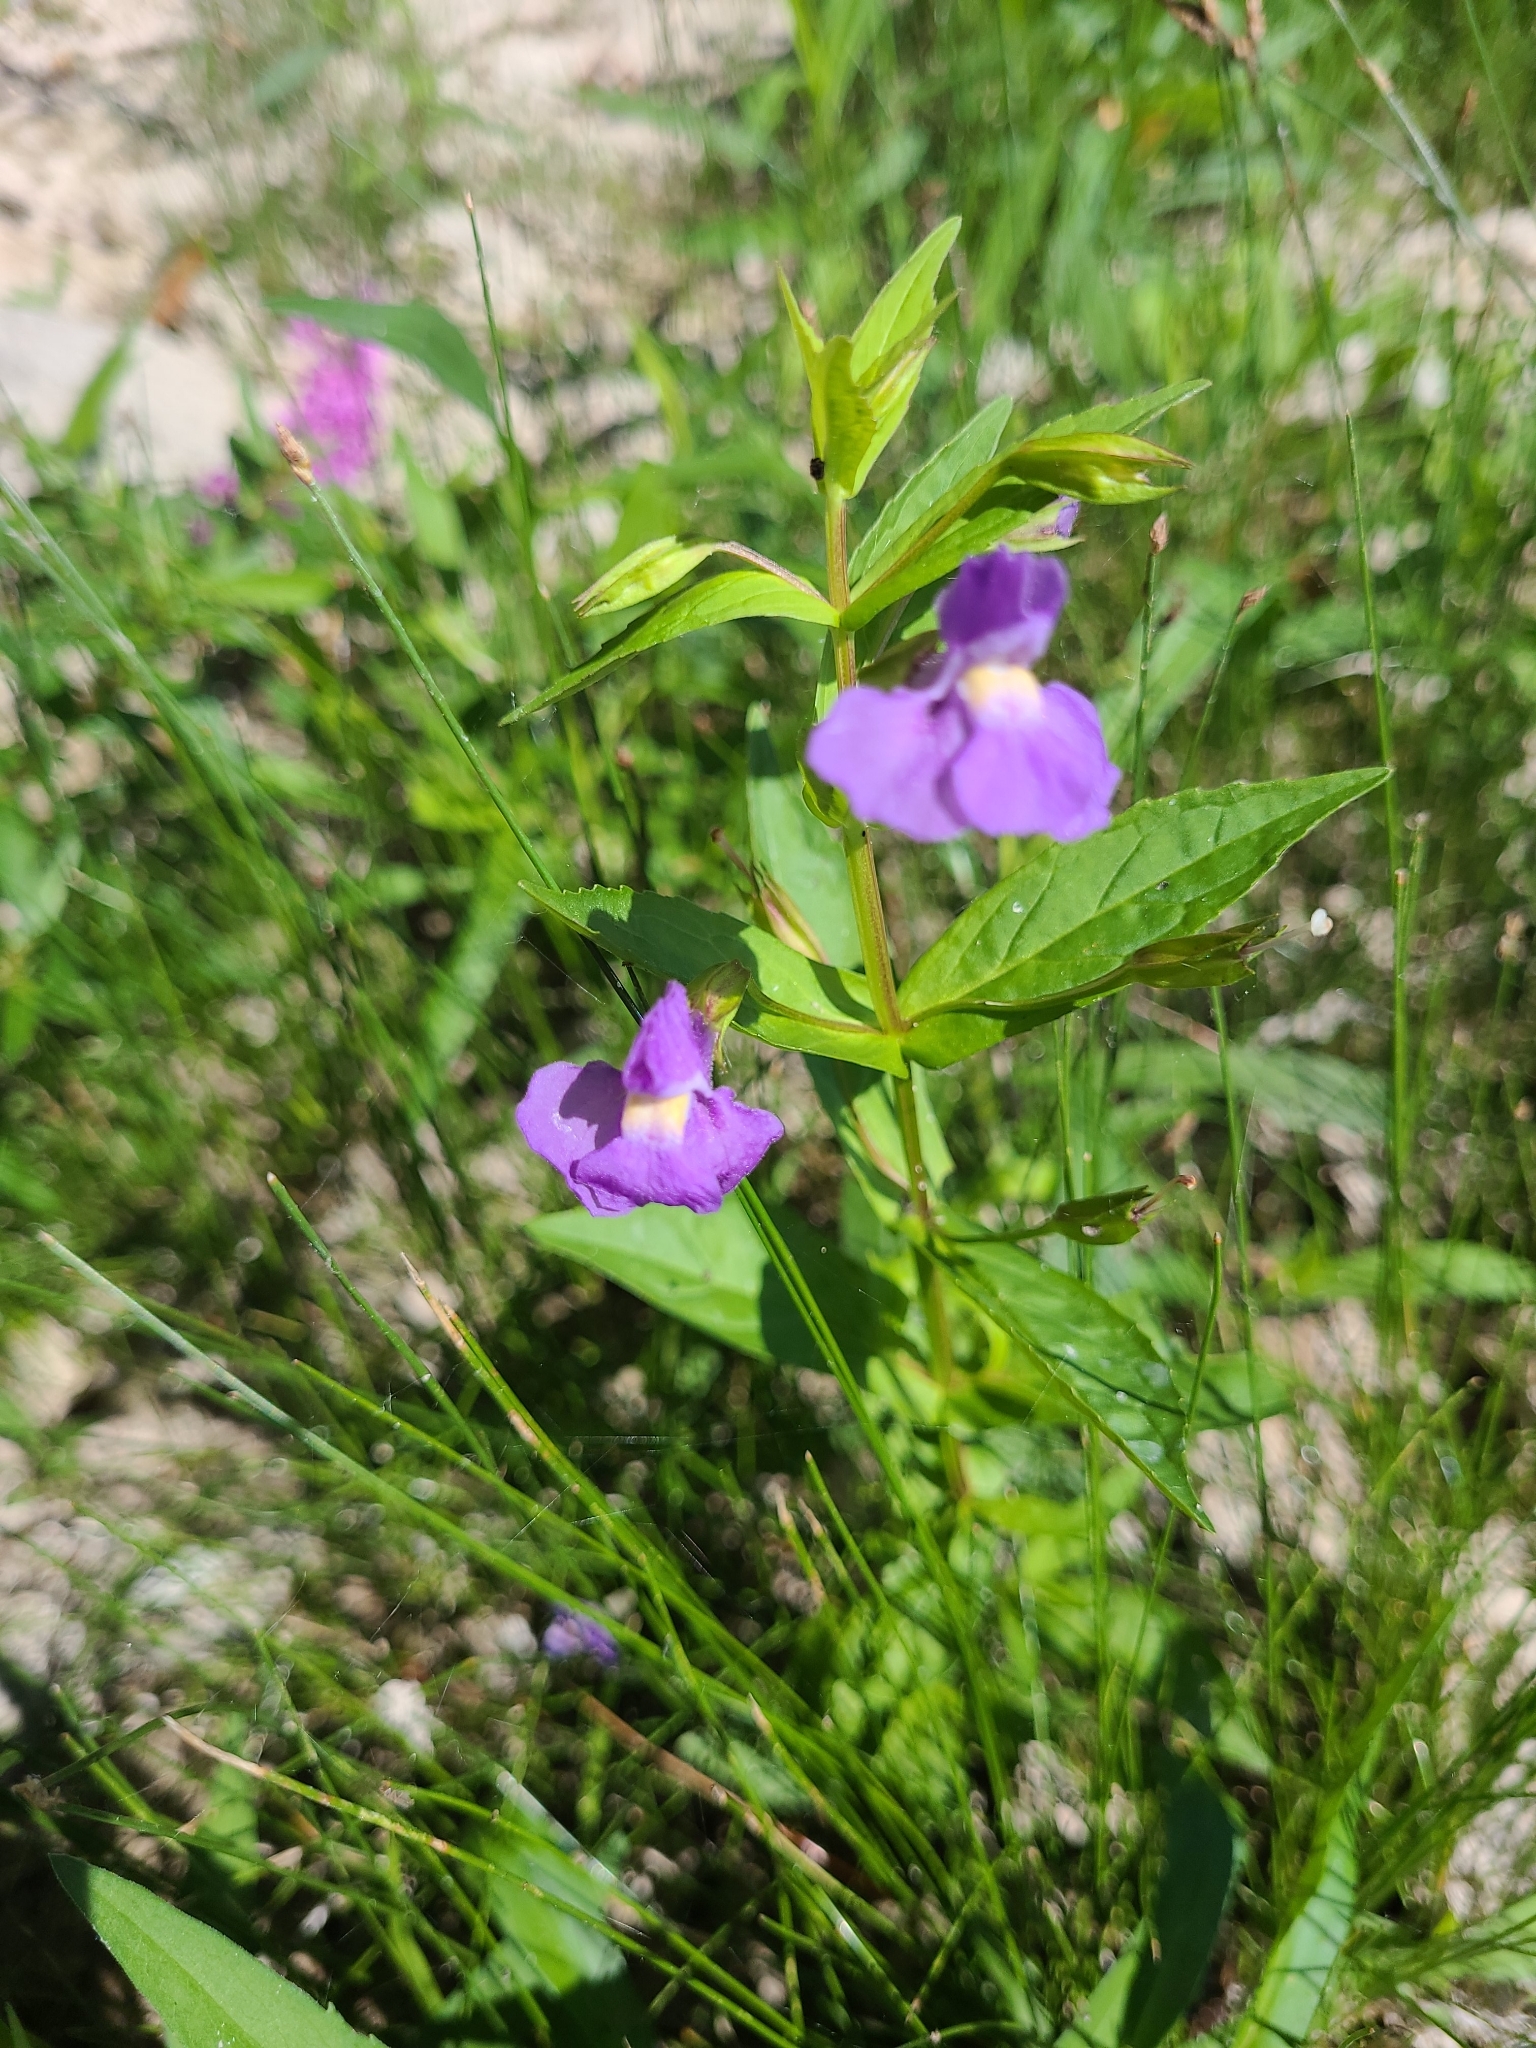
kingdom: Plantae
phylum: Tracheophyta
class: Magnoliopsida
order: Lamiales
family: Phrymaceae
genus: Mimulus
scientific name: Mimulus ringens
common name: Allegheny monkeyflower
